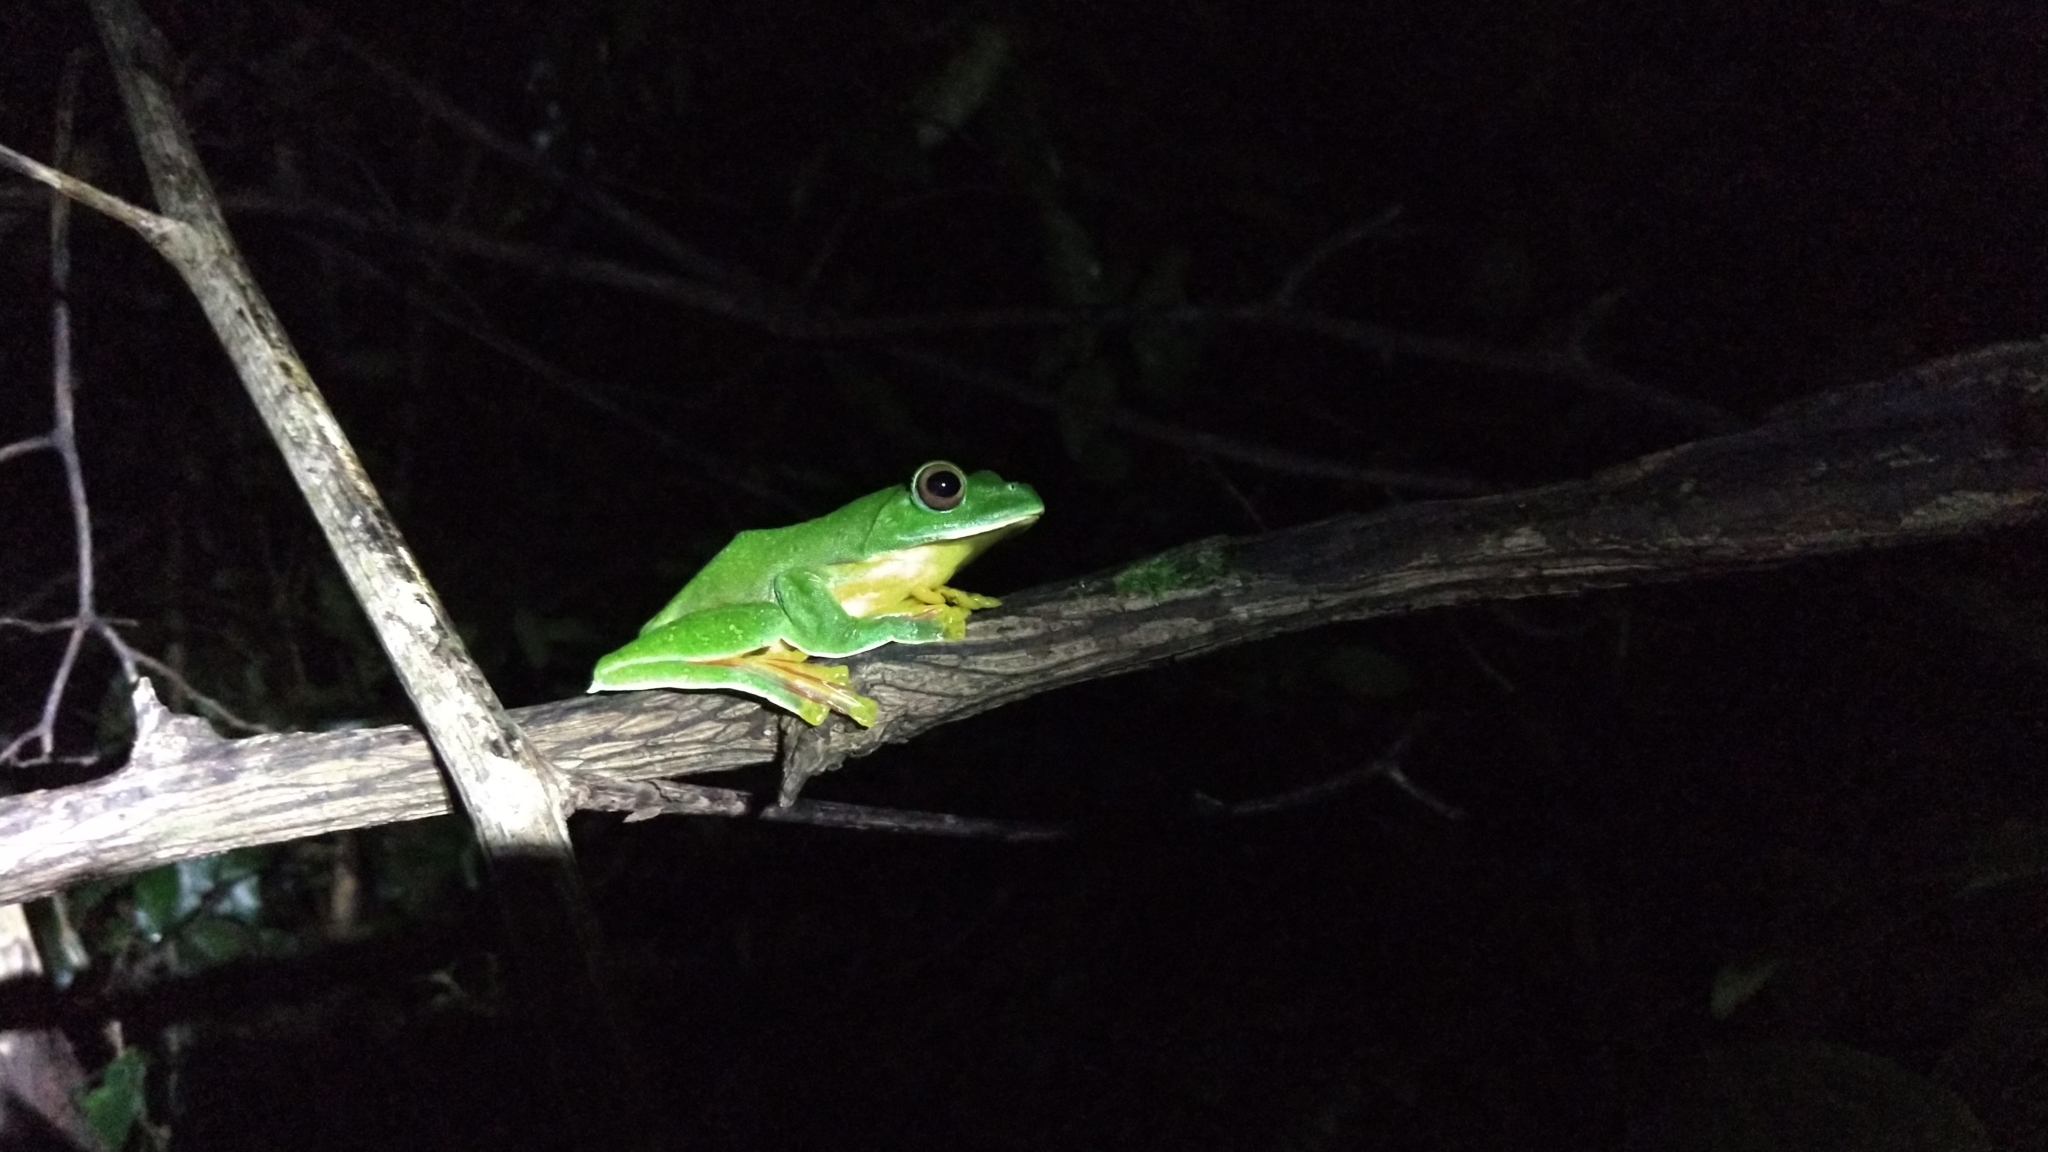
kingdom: Animalia
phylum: Chordata
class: Amphibia
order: Anura
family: Rhacophoridae
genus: Rhacophorus
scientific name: Rhacophorus malabaricus
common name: Malabar gliding frog
